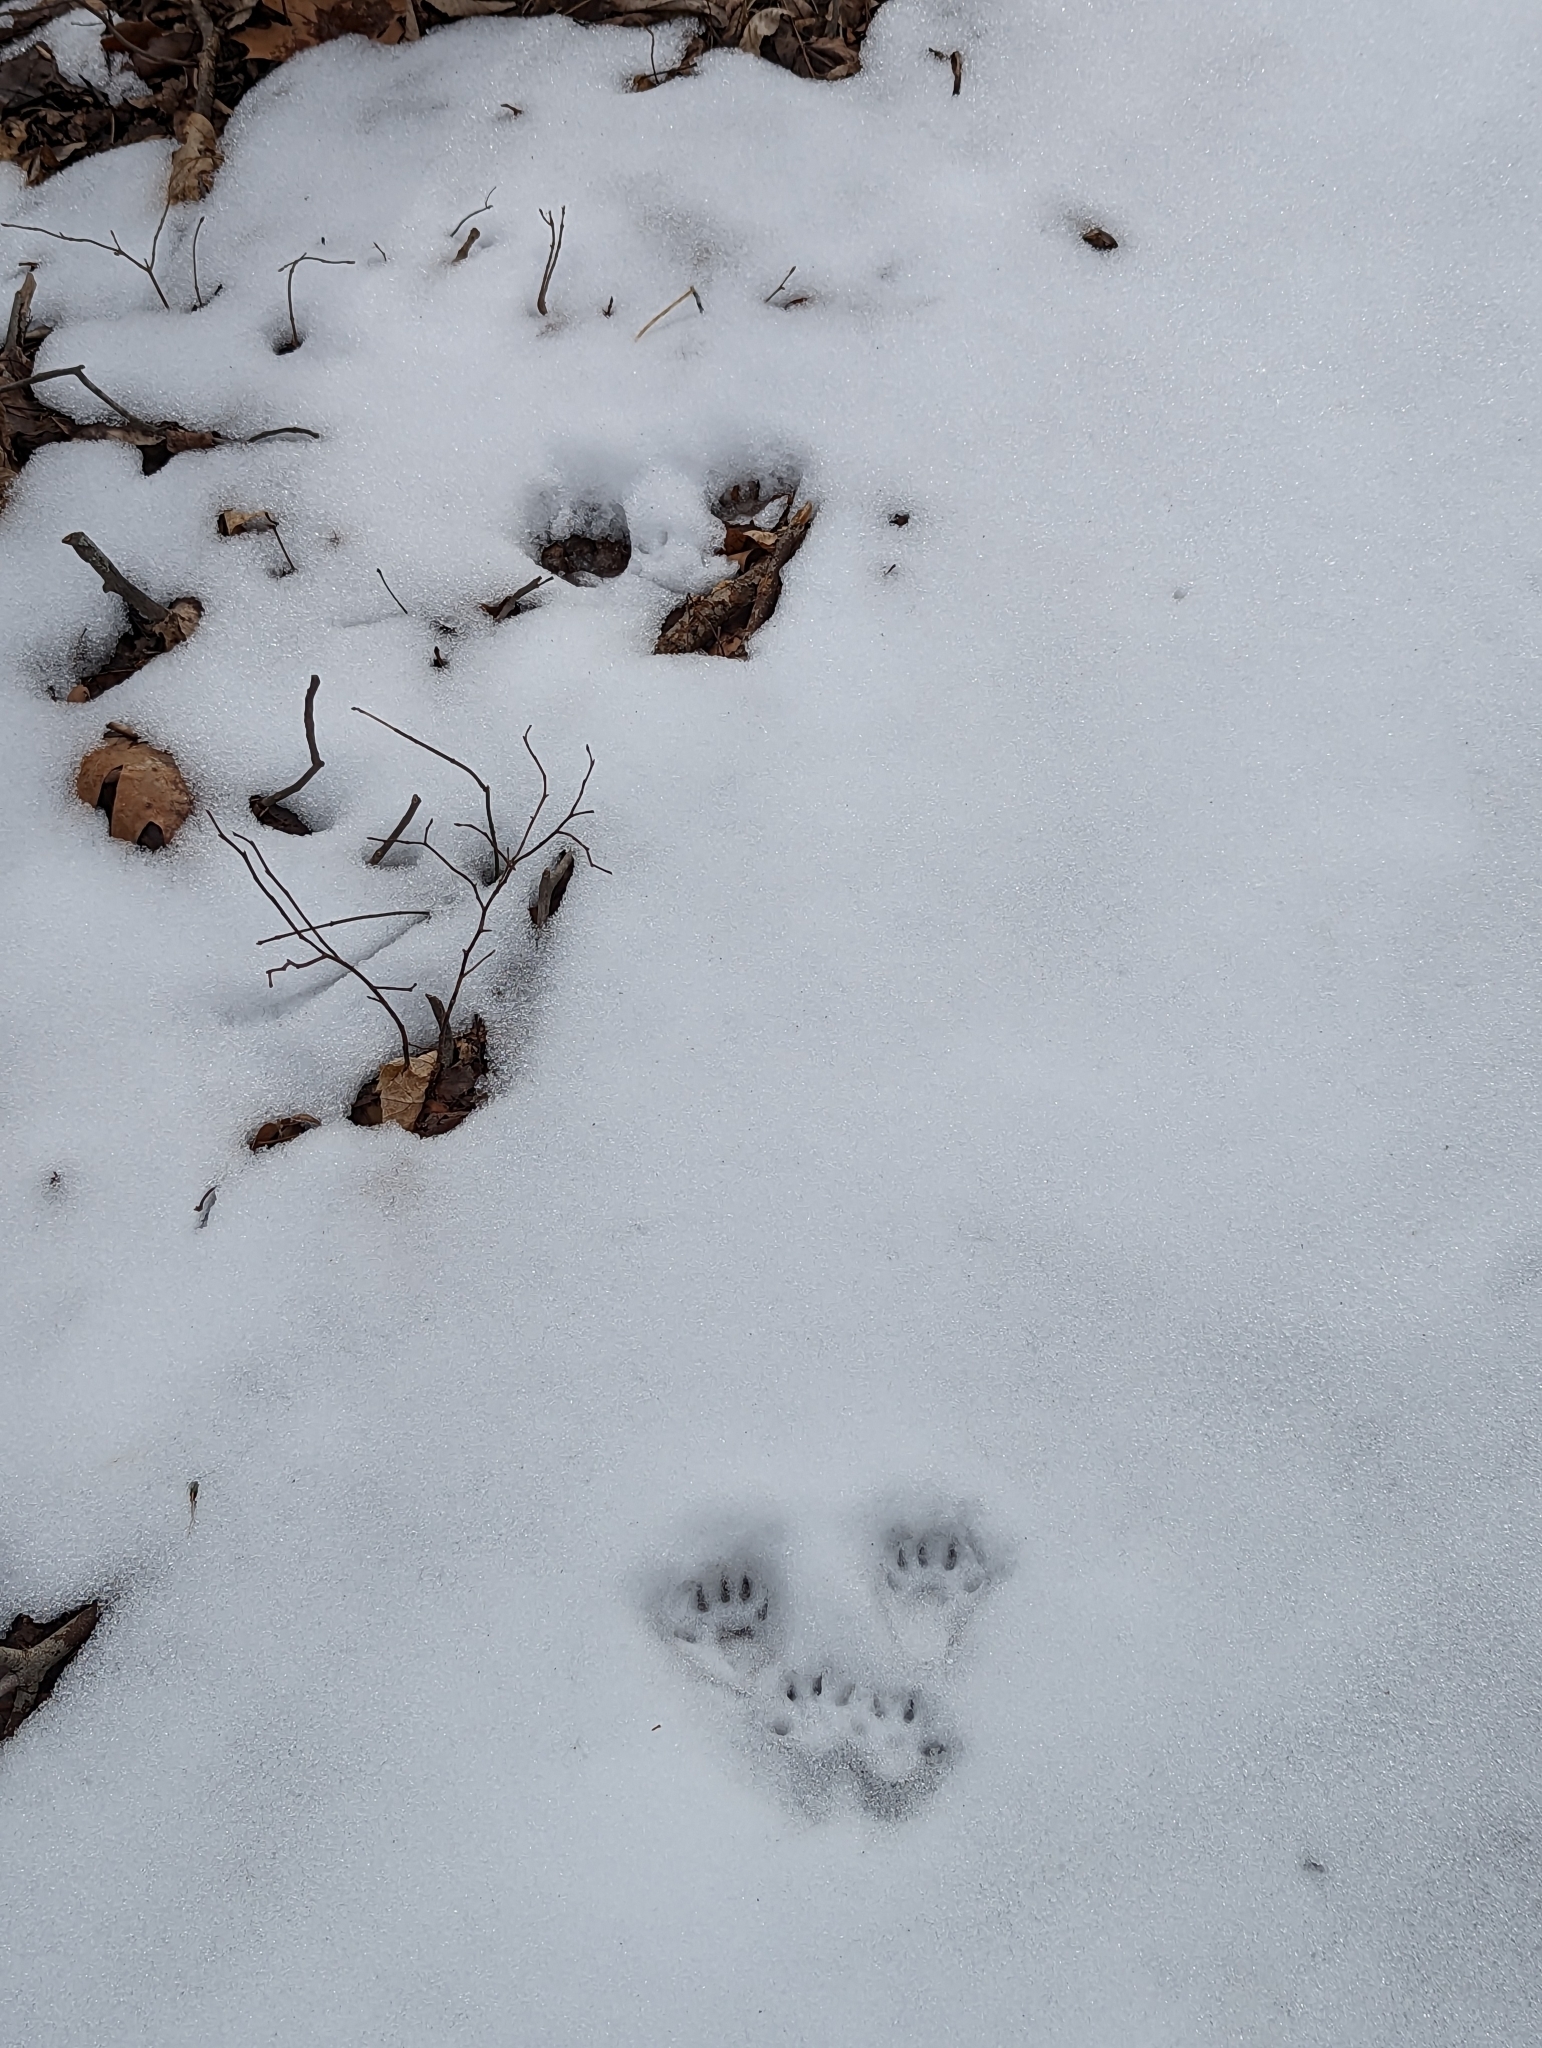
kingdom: Animalia
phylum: Chordata
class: Mammalia
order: Rodentia
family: Sciuridae
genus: Sciurus
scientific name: Sciurus carolinensis
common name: Eastern gray squirrel
